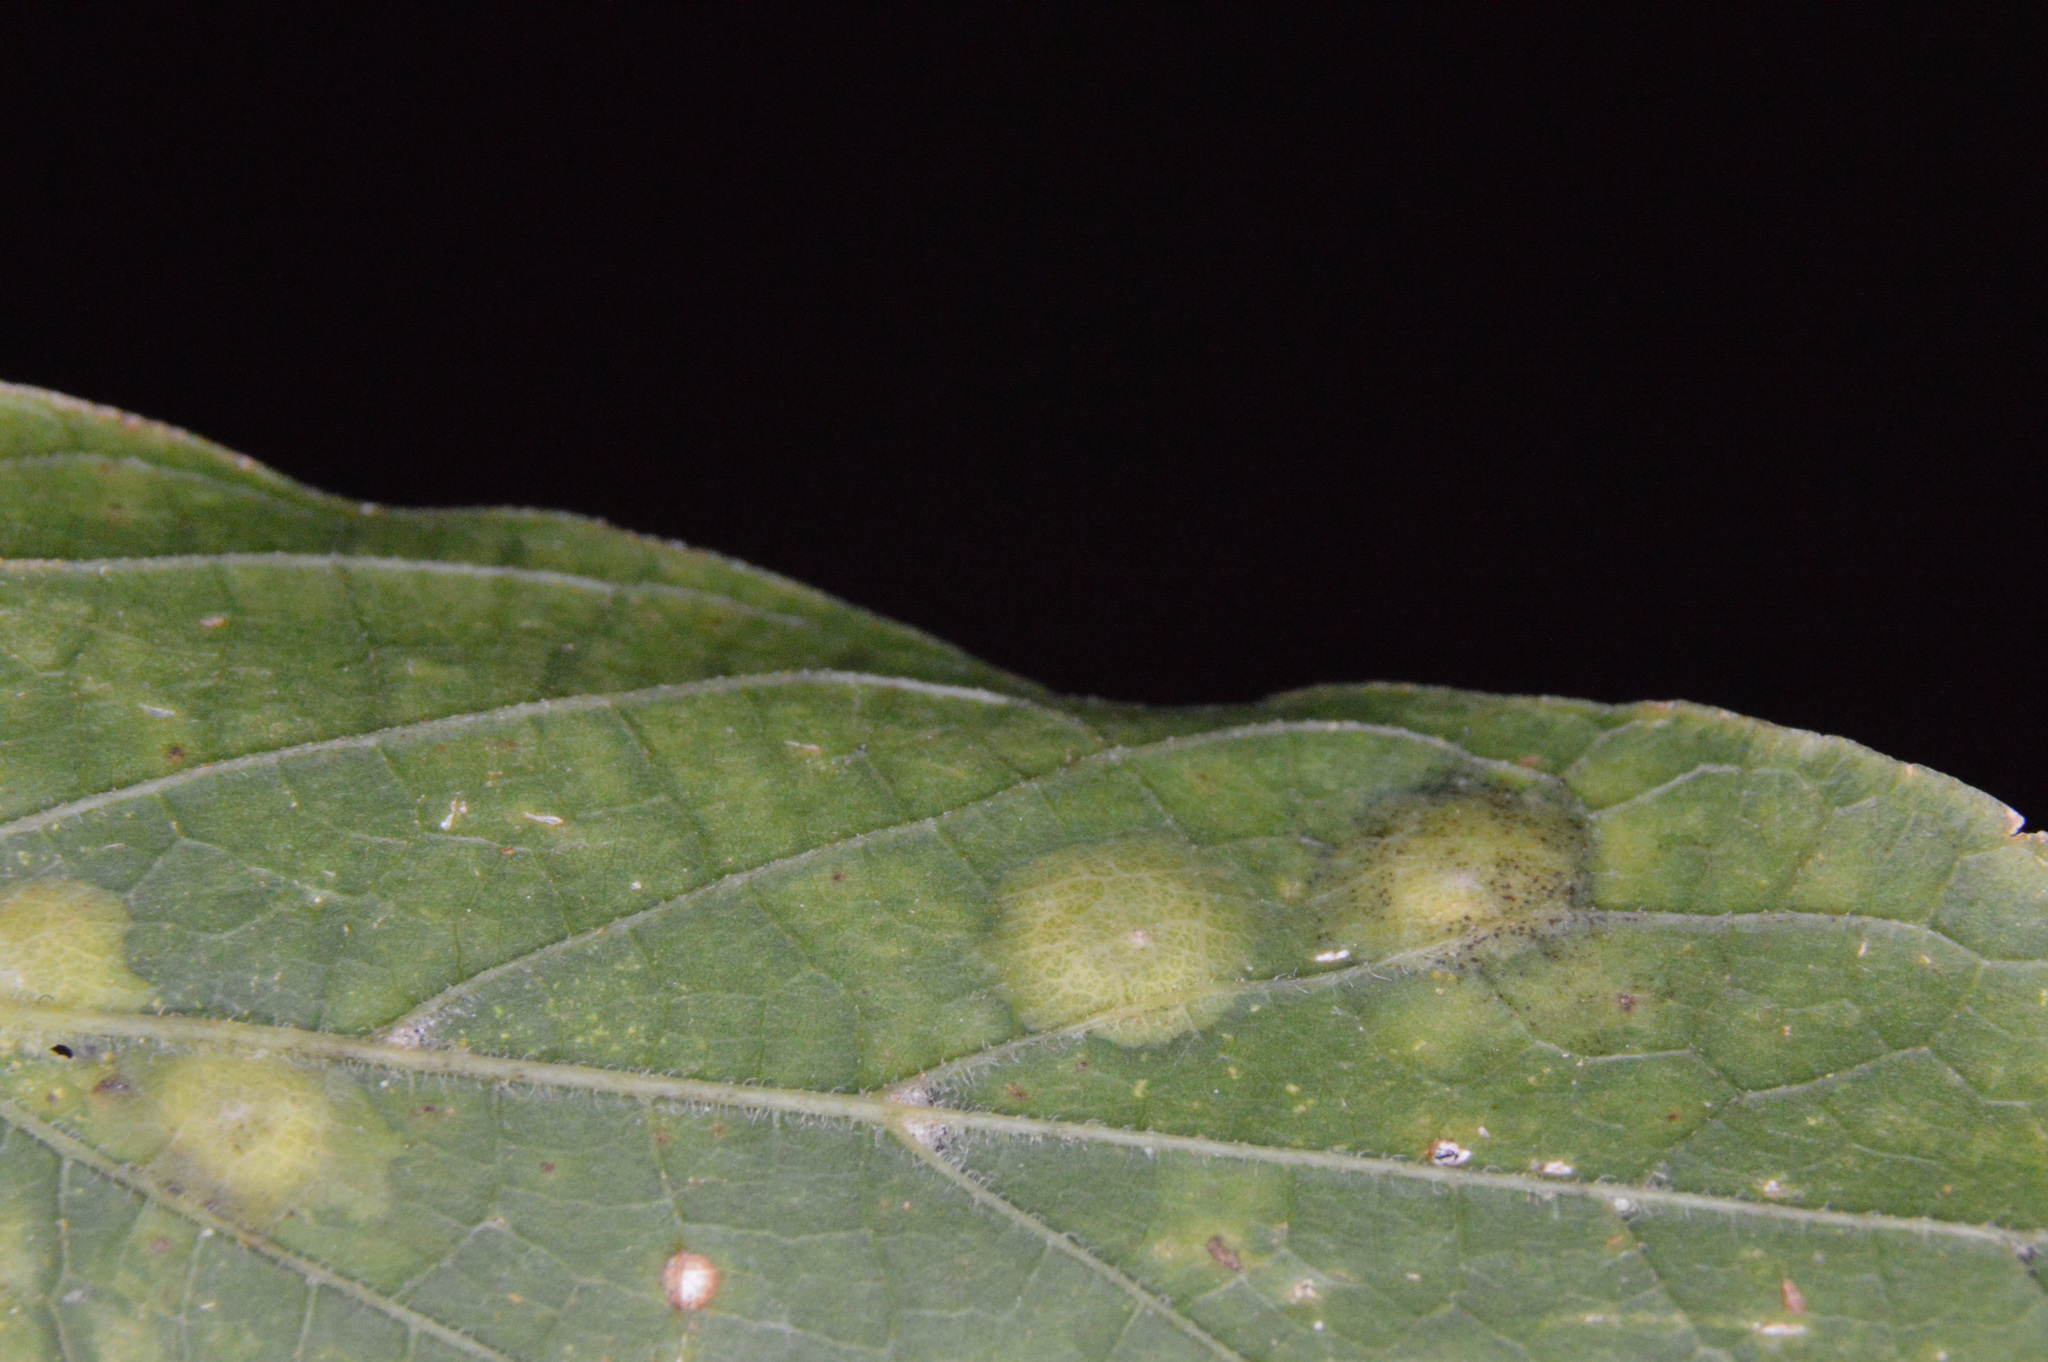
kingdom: Animalia
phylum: Arthropoda
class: Insecta
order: Hemiptera
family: Aphalaridae
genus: Pachypsylla
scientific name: Pachypsylla celtidisvesicula
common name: Hackberry blister gall psyllid
